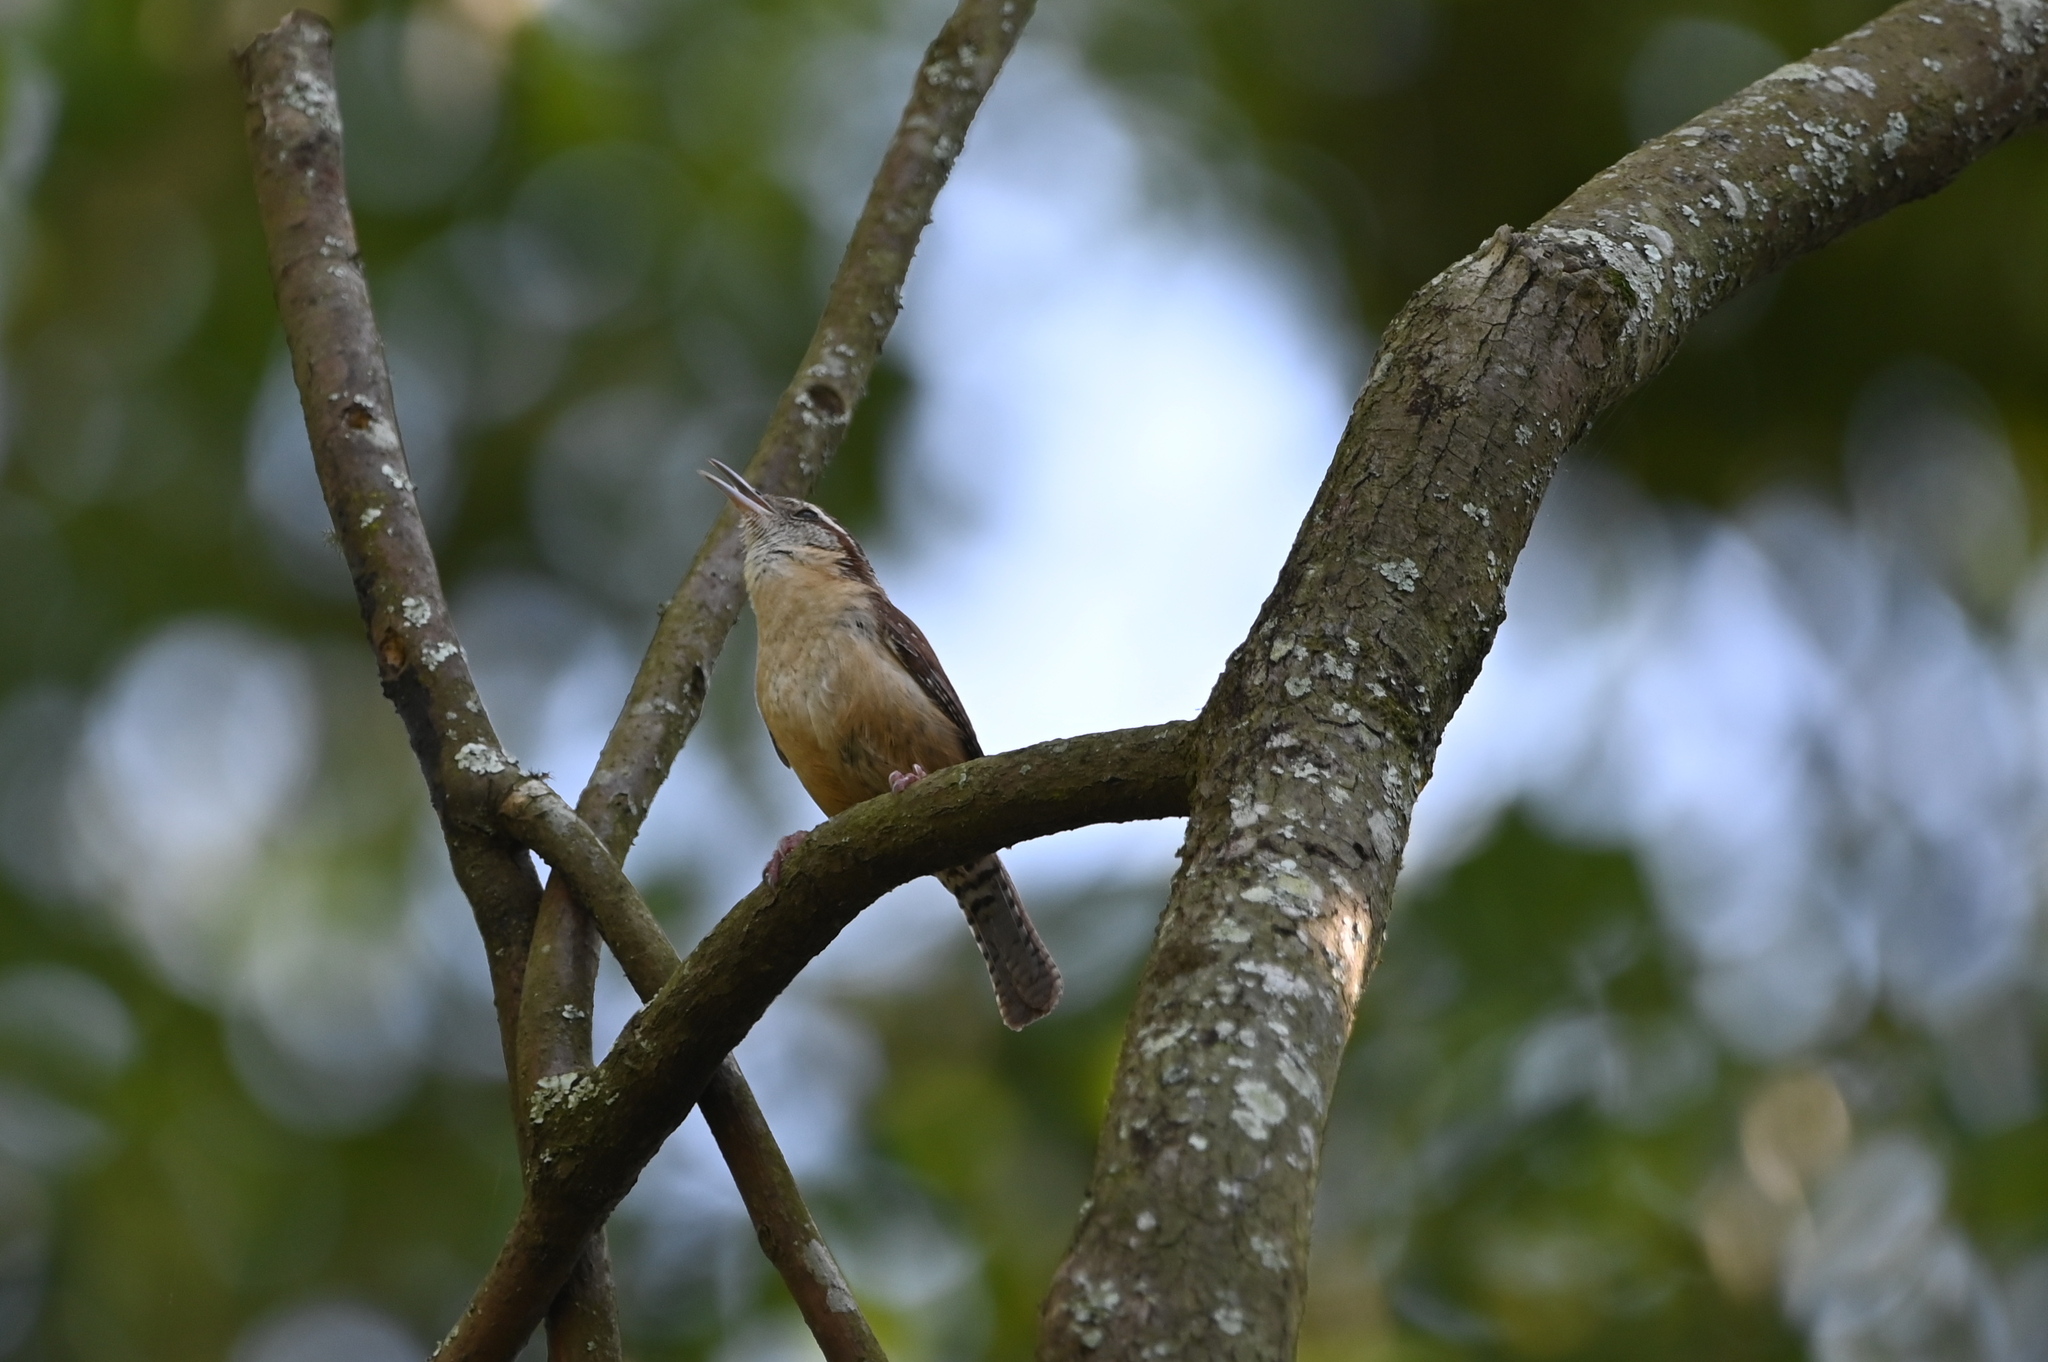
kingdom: Animalia
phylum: Chordata
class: Aves
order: Passeriformes
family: Troglodytidae
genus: Thryothorus
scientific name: Thryothorus ludovicianus
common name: Carolina wren
